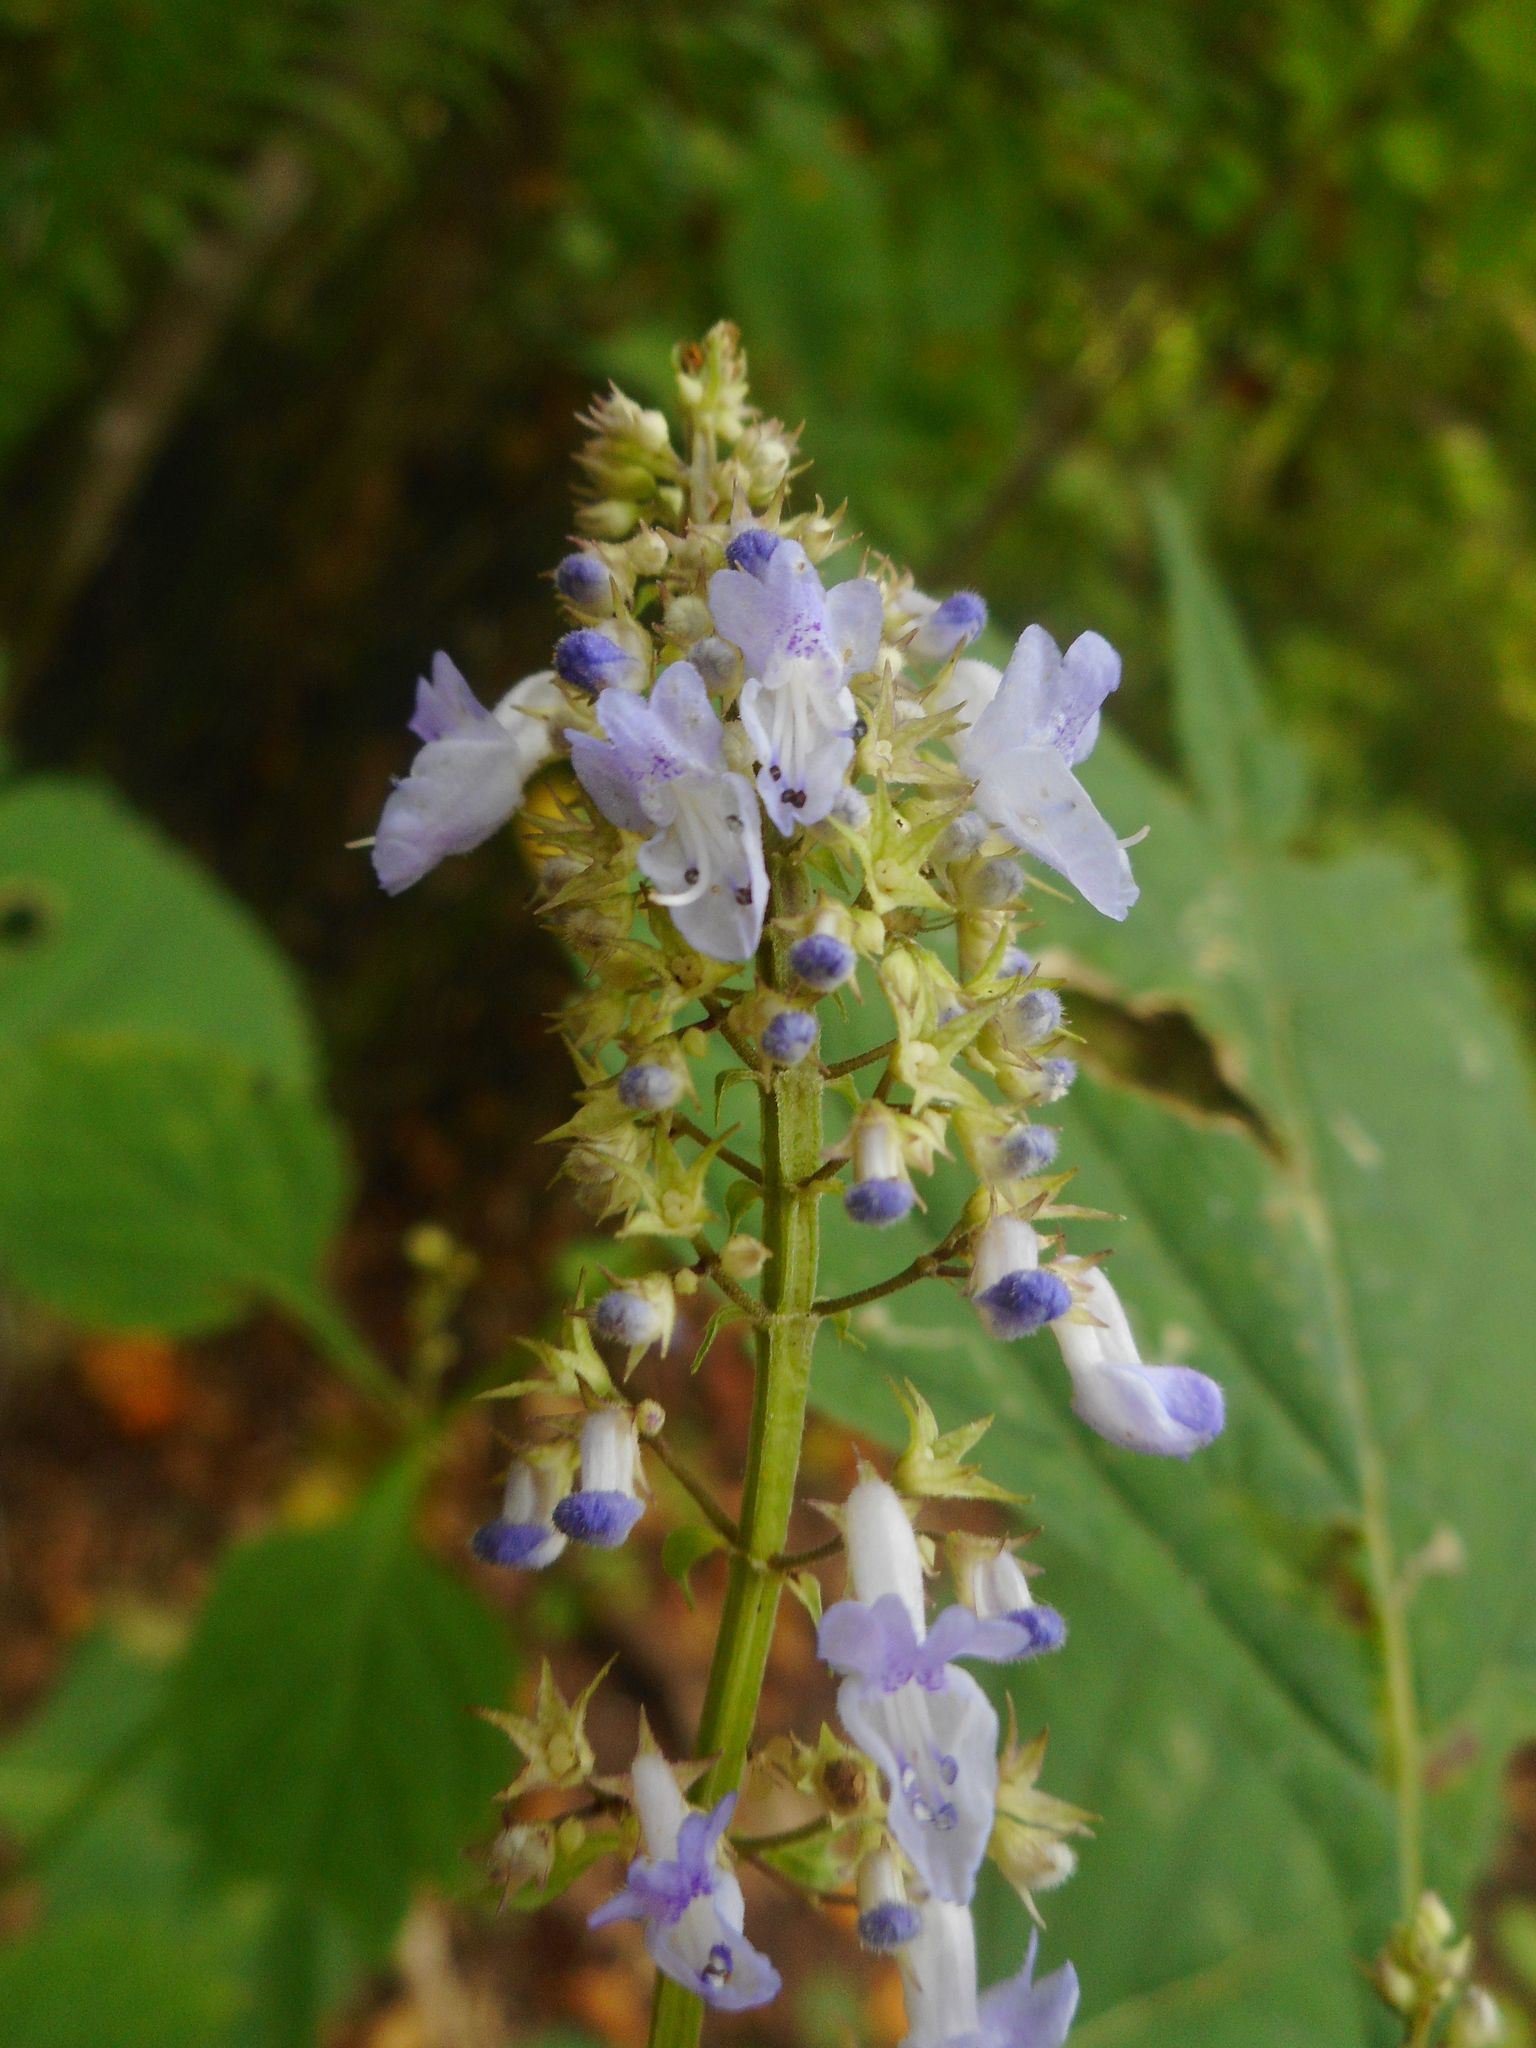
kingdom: Plantae
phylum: Tracheophyta
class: Magnoliopsida
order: Lamiales
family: Lamiaceae
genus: Isodon
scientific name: Isodon excisus
